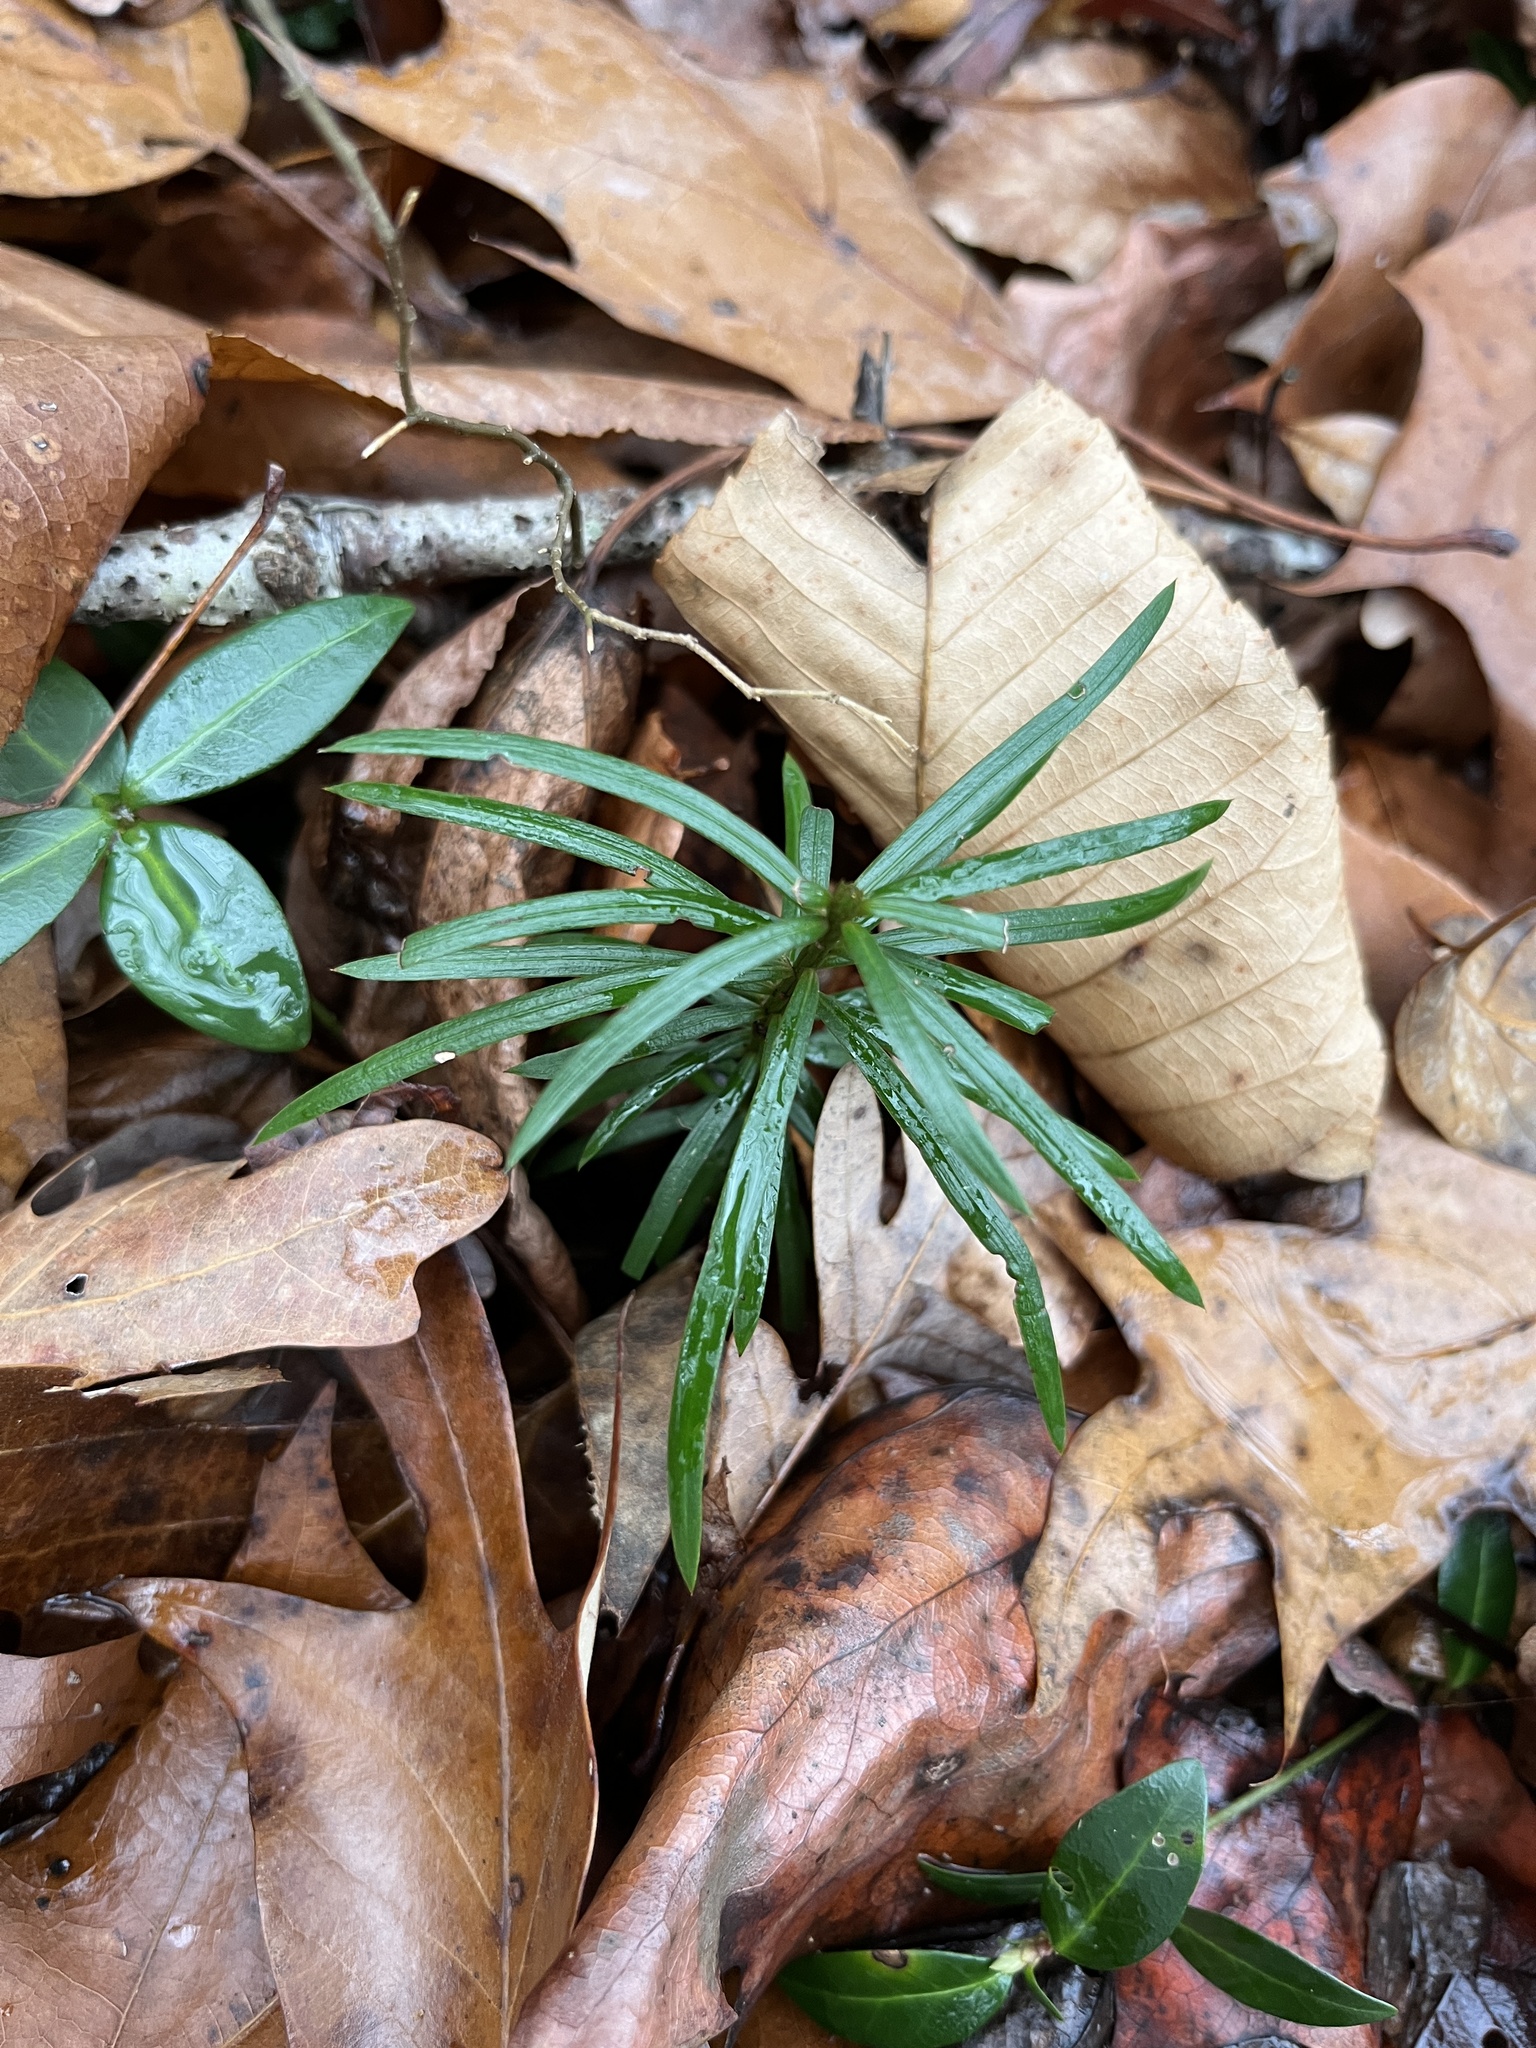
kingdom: Plantae
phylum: Tracheophyta
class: Pinopsida
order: Pinales
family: Cephalotaxaceae
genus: Cephalotaxus
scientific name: Cephalotaxus harringtonia
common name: Japanese plum-yew
